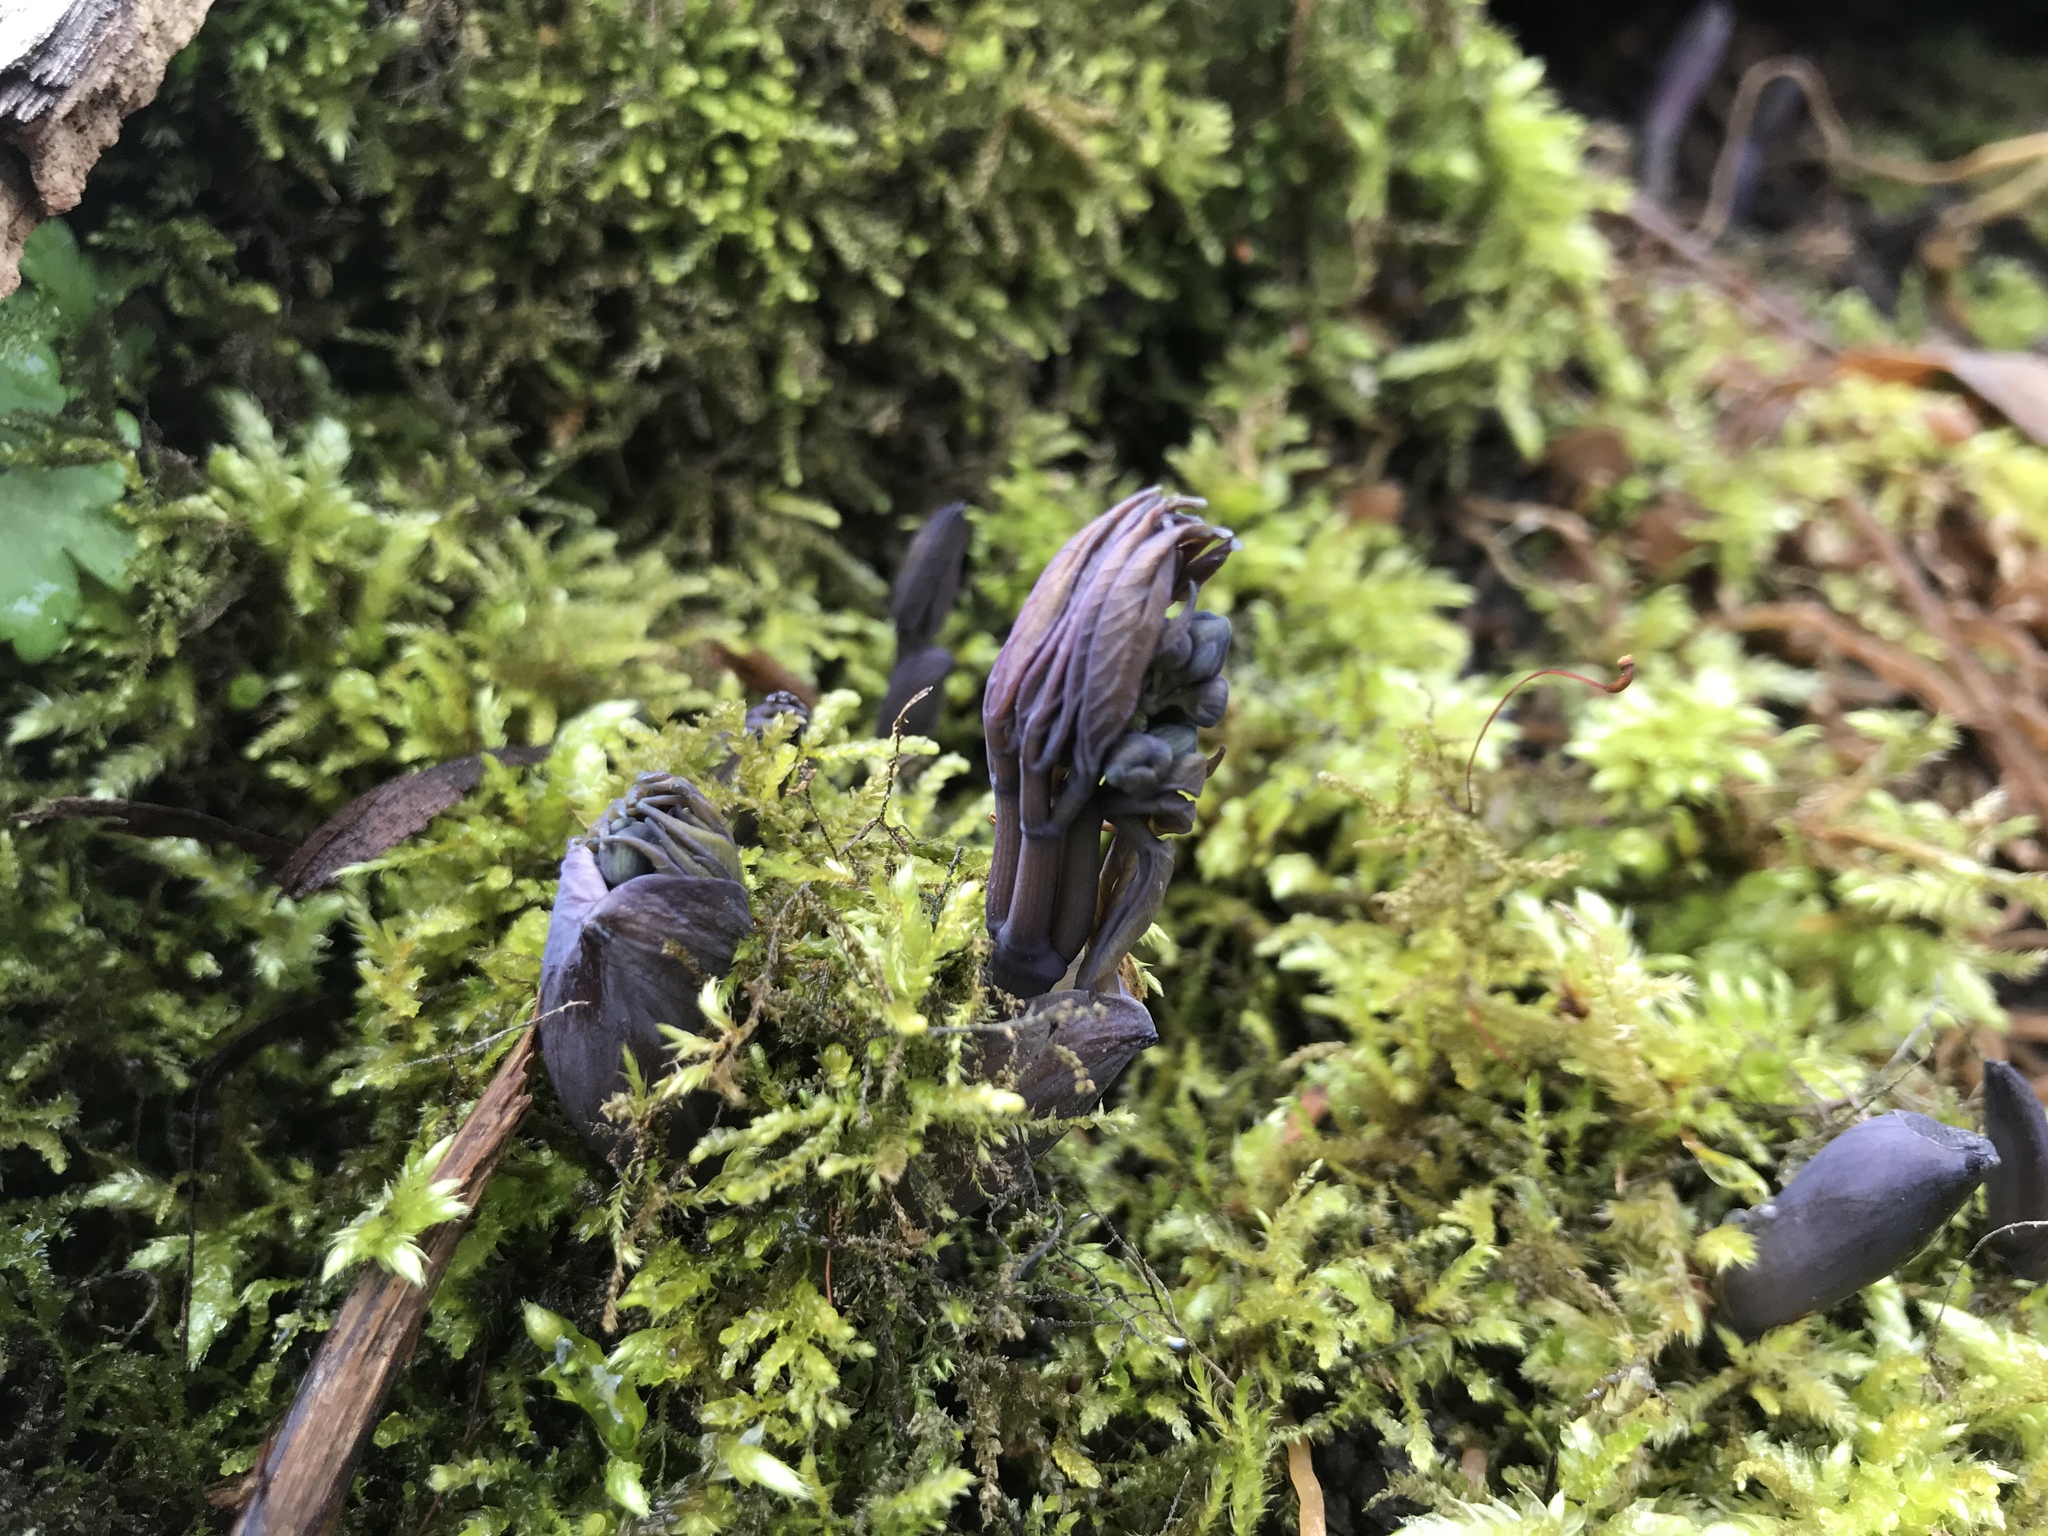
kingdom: Plantae
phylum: Tracheophyta
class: Magnoliopsida
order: Ranunculales
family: Berberidaceae
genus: Caulophyllum
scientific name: Caulophyllum giganteum
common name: Blue cohosh
